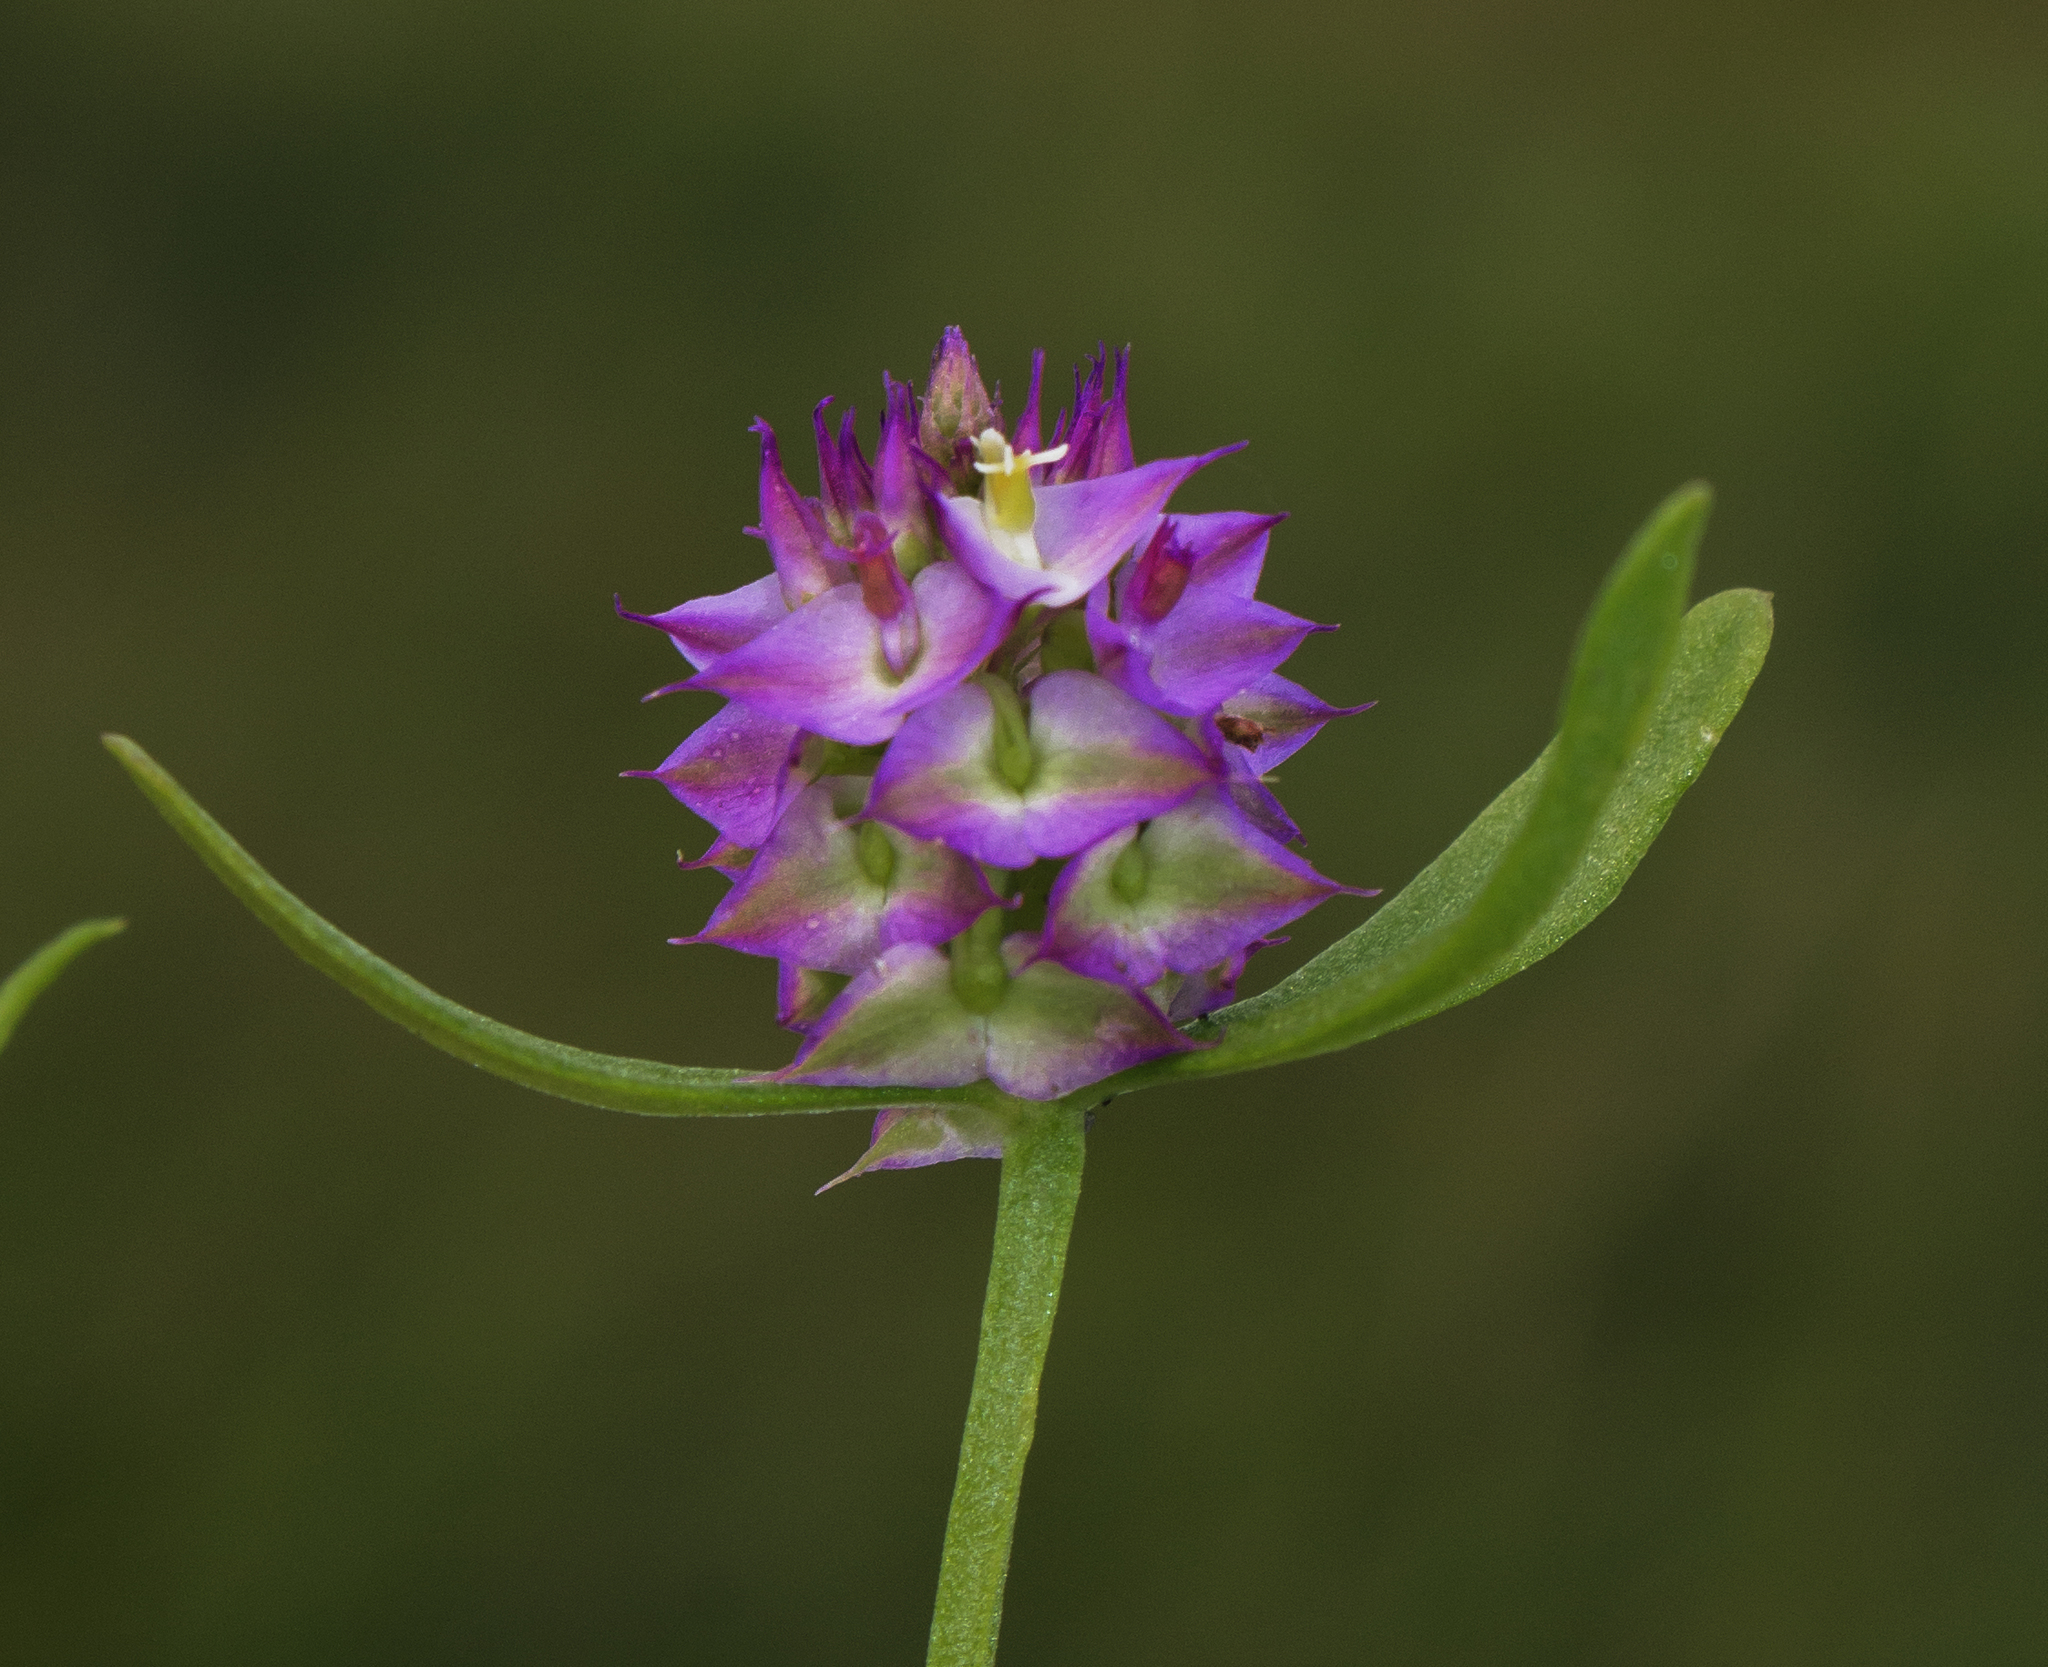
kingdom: Plantae
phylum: Tracheophyta
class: Magnoliopsida
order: Fabales
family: Polygalaceae
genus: Polygala
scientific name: Polygala cruciata
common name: Drumheads
